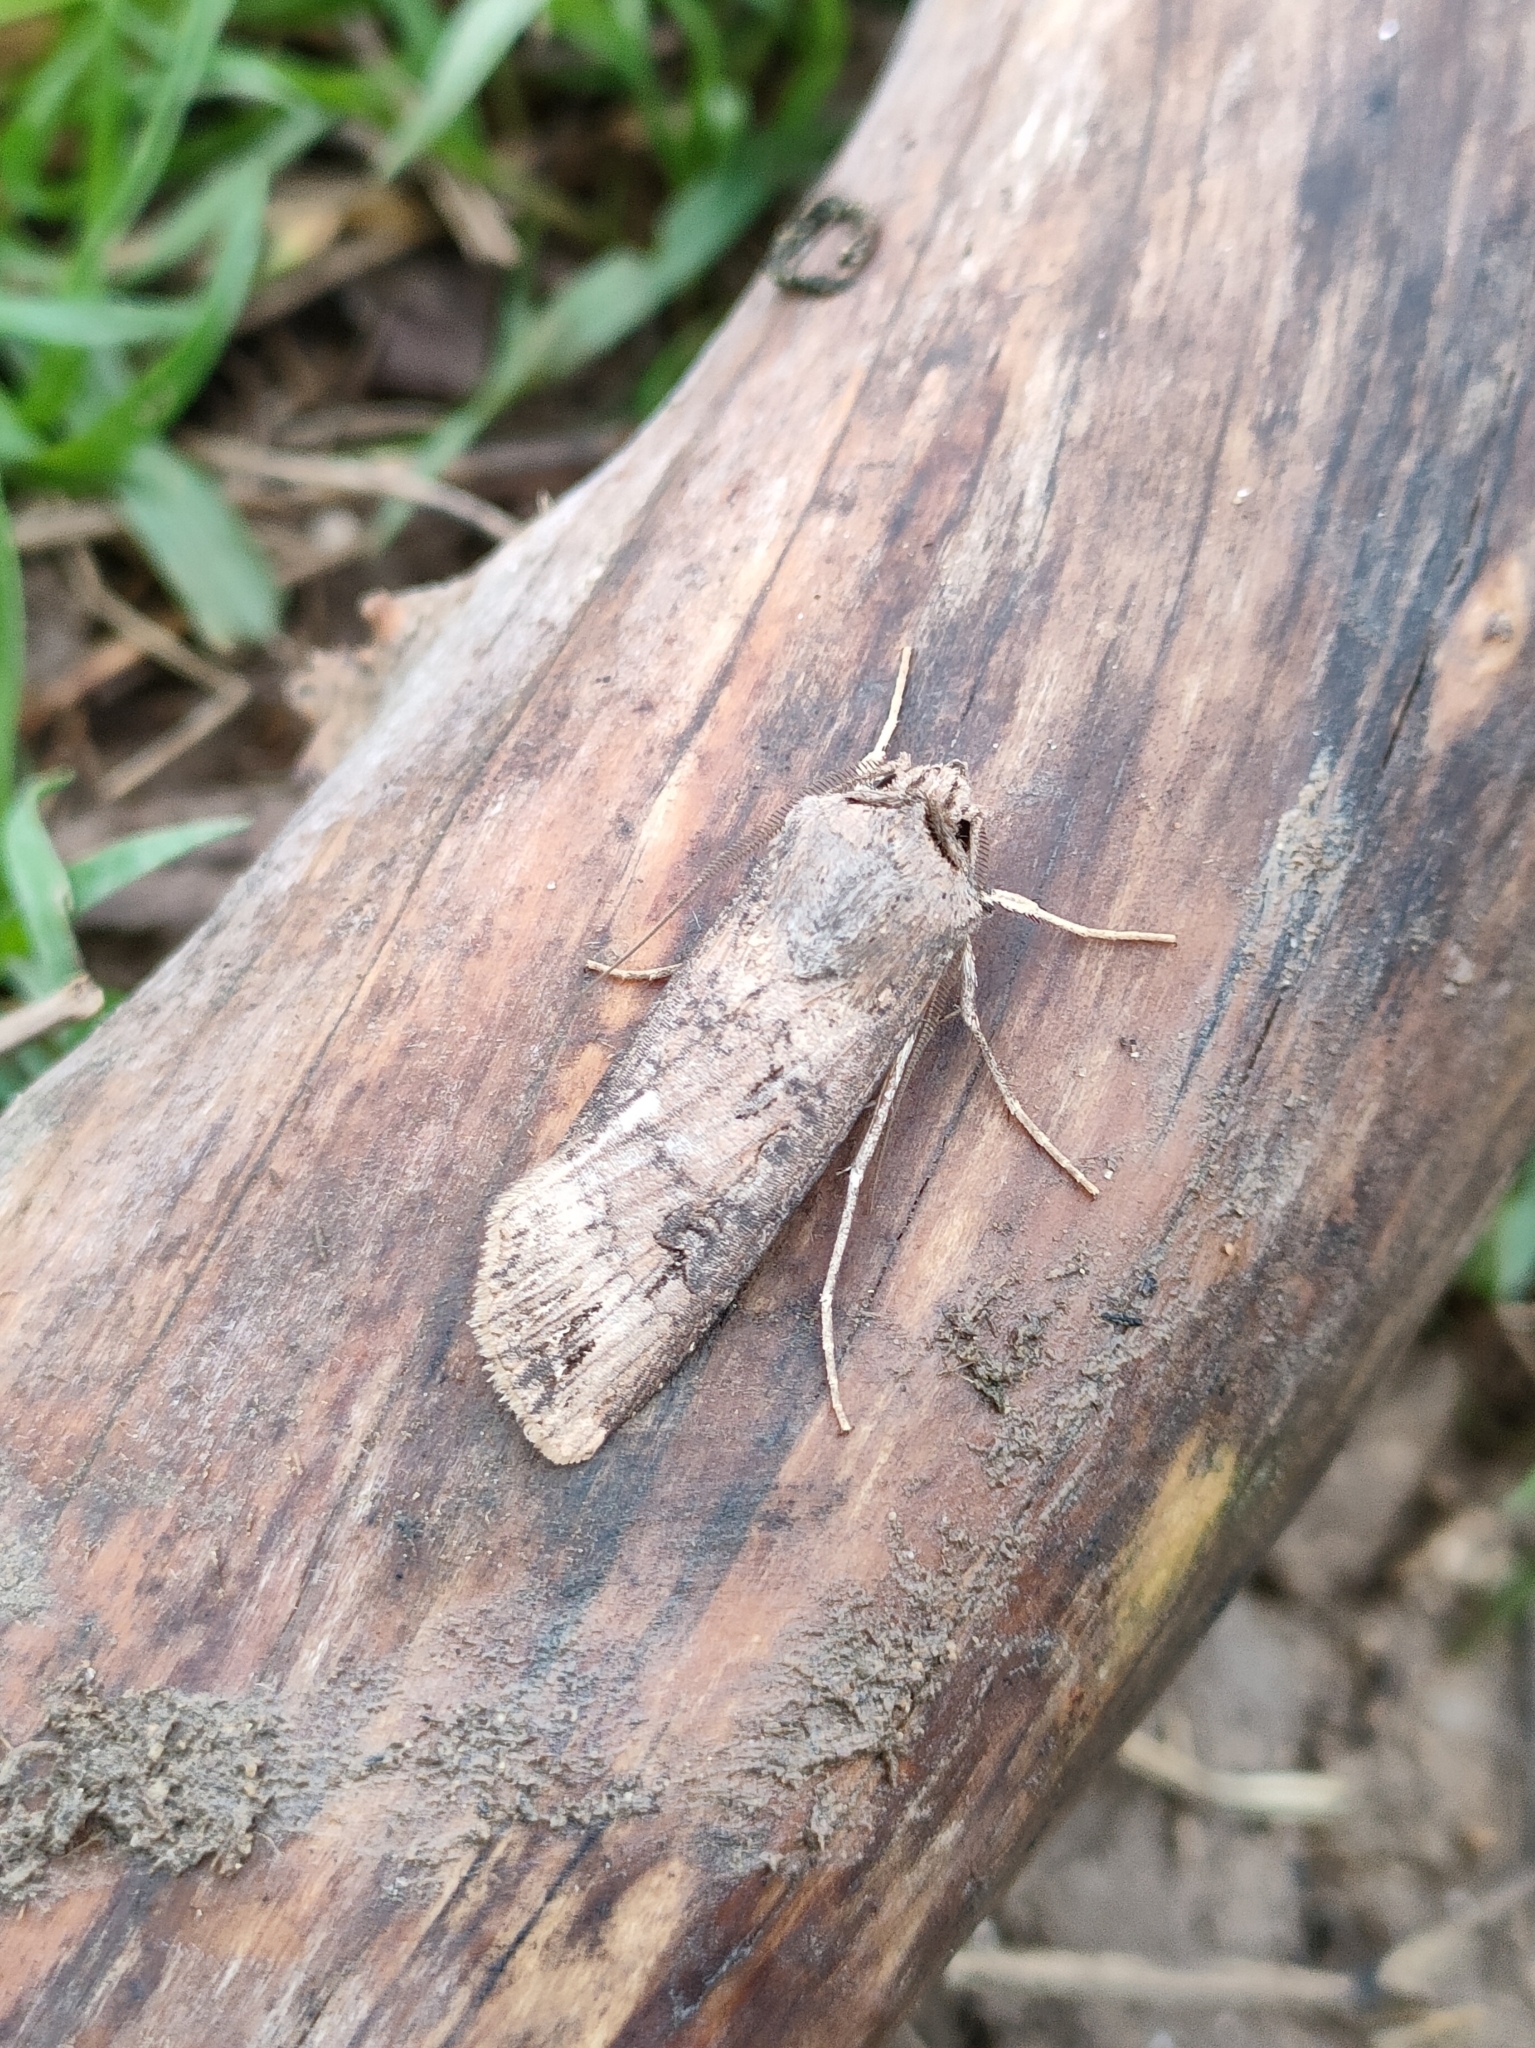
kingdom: Animalia
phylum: Arthropoda
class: Insecta
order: Lepidoptera
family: Noctuidae
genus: Agrotis
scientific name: Agrotis ipsilon
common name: Dark sword-grass
